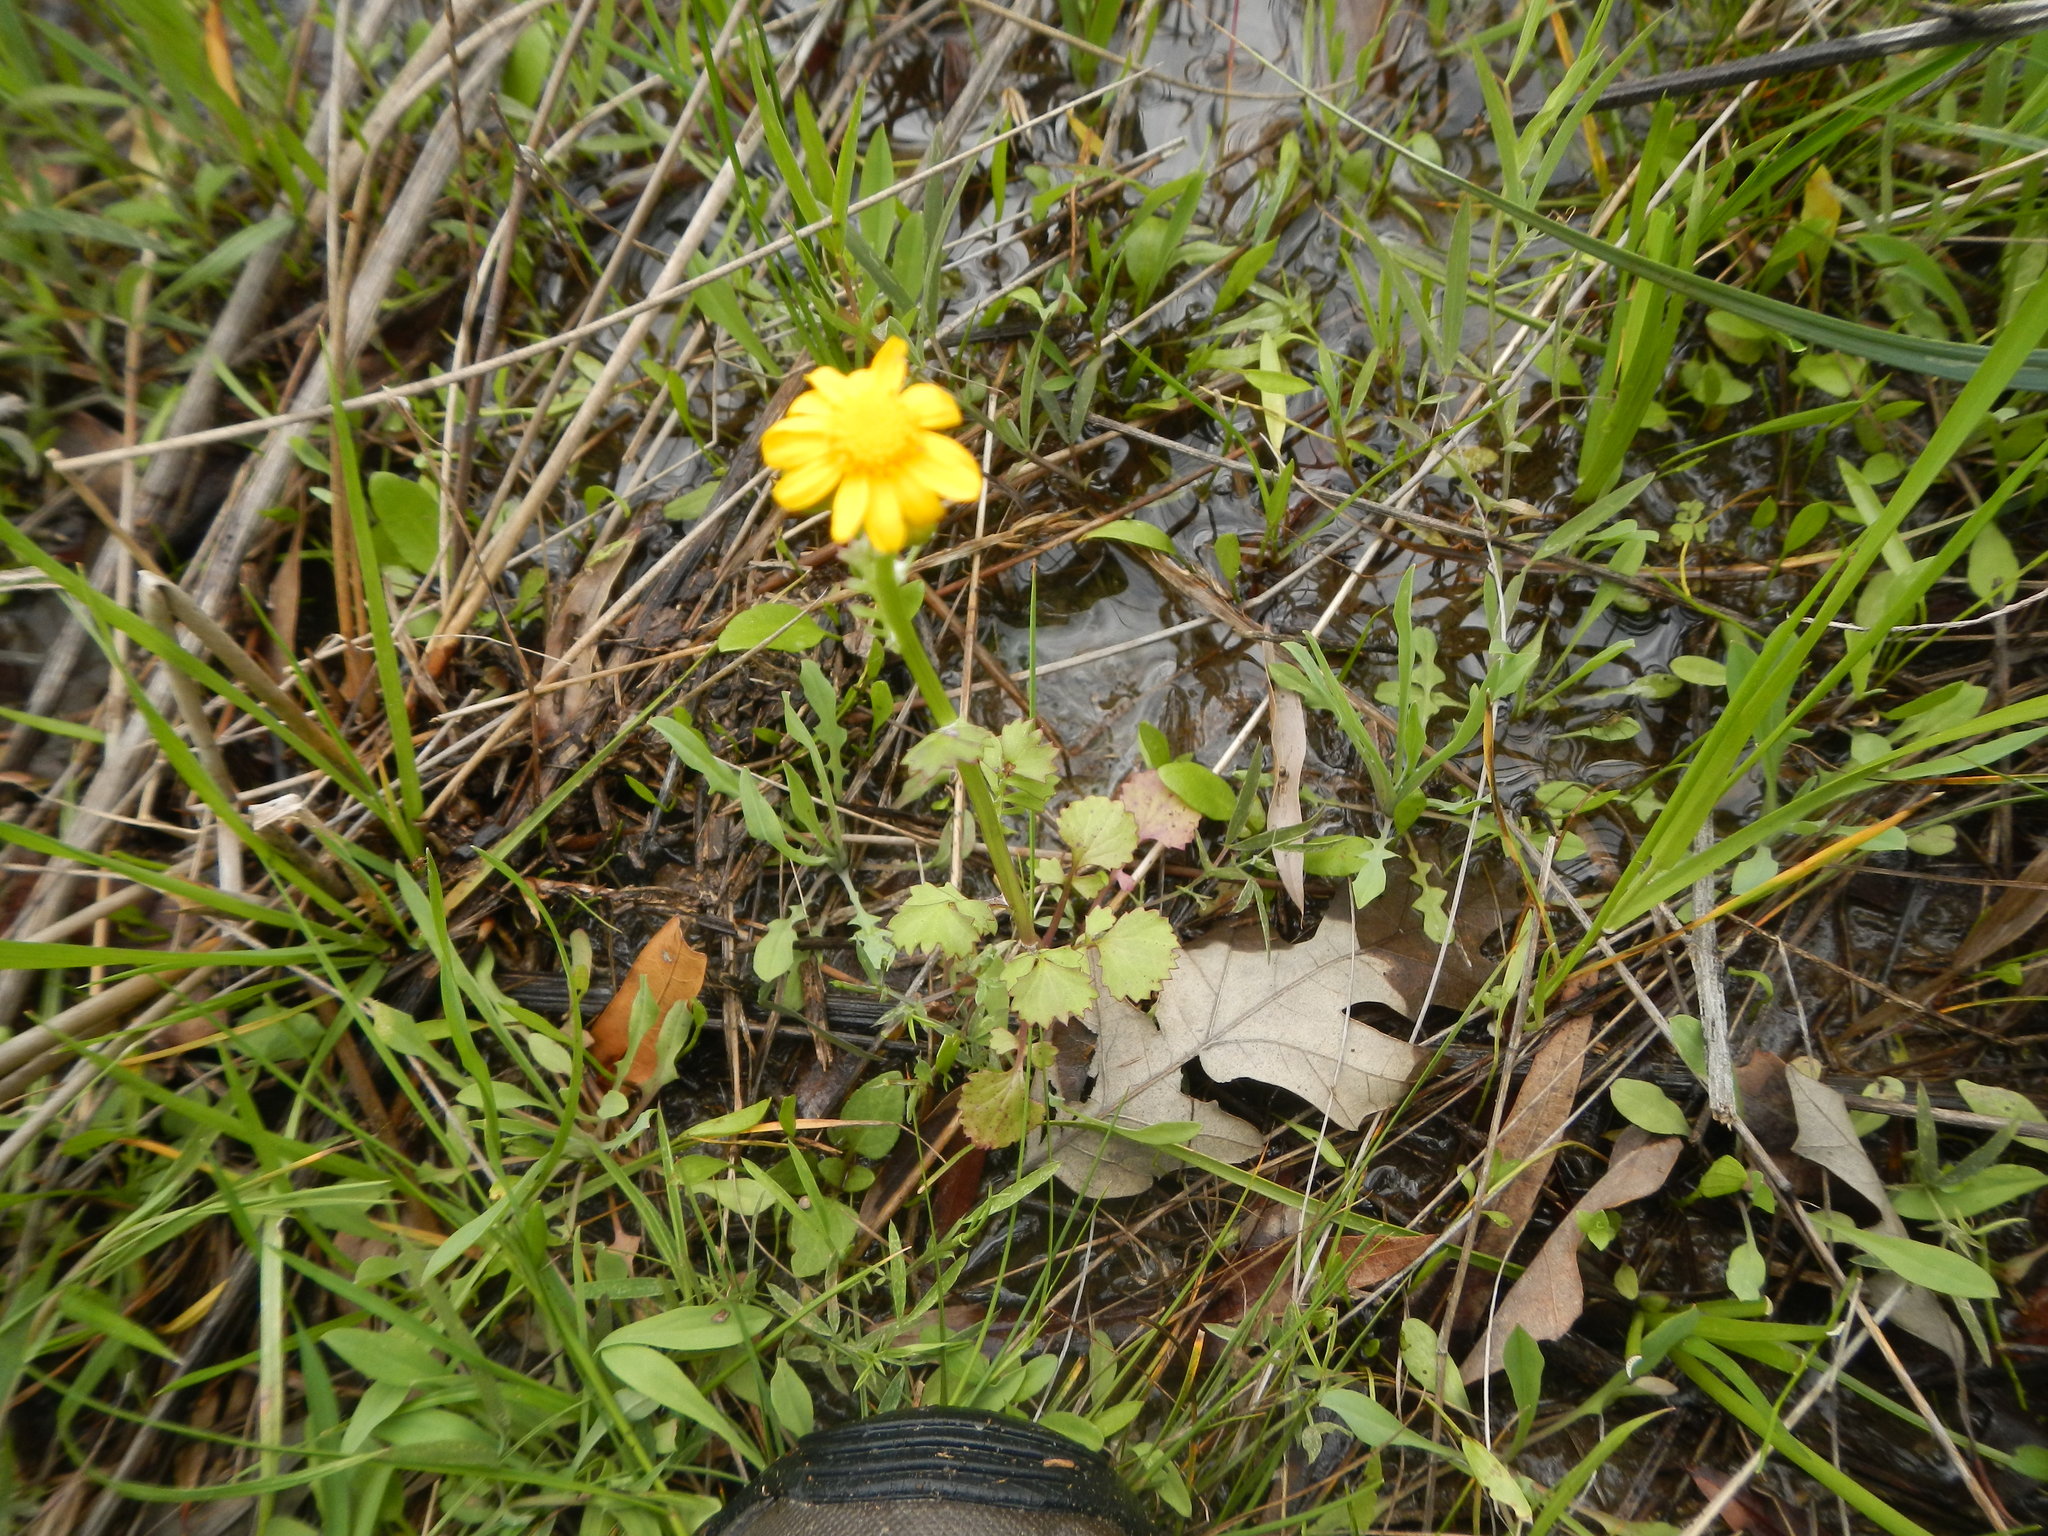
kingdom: Plantae
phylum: Tracheophyta
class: Magnoliopsida
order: Asterales
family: Asteraceae
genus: Packera
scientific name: Packera glabella
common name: Butterweed
